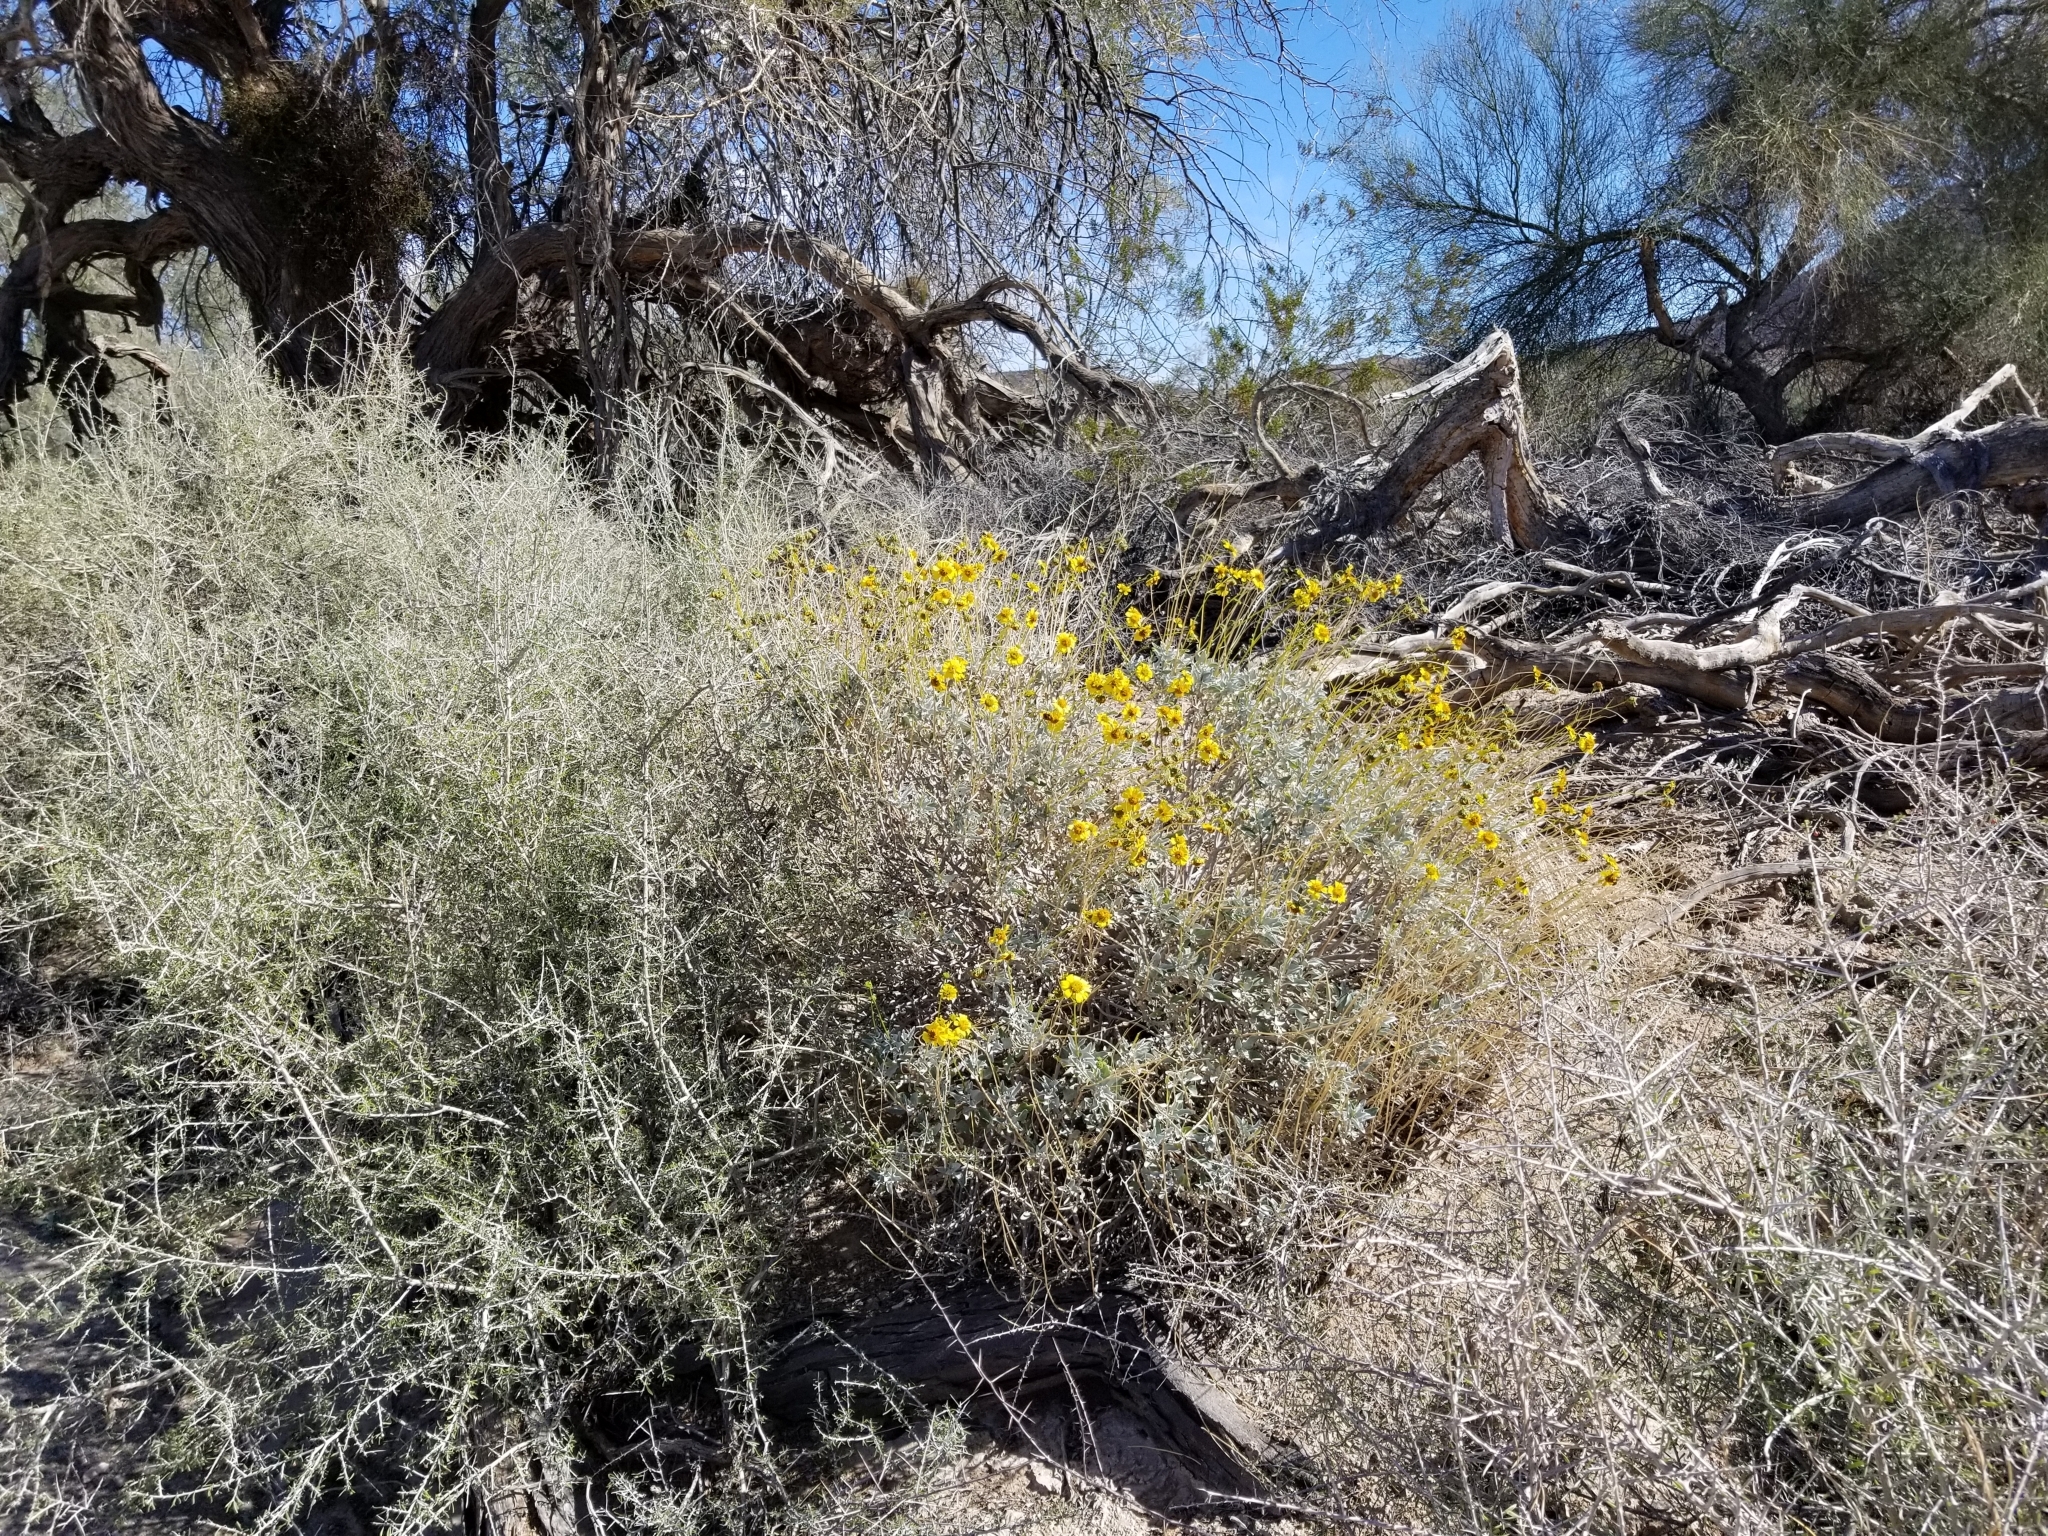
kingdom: Plantae
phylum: Tracheophyta
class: Magnoliopsida
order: Asterales
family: Asteraceae
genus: Encelia
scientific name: Encelia farinosa
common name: Brittlebush
